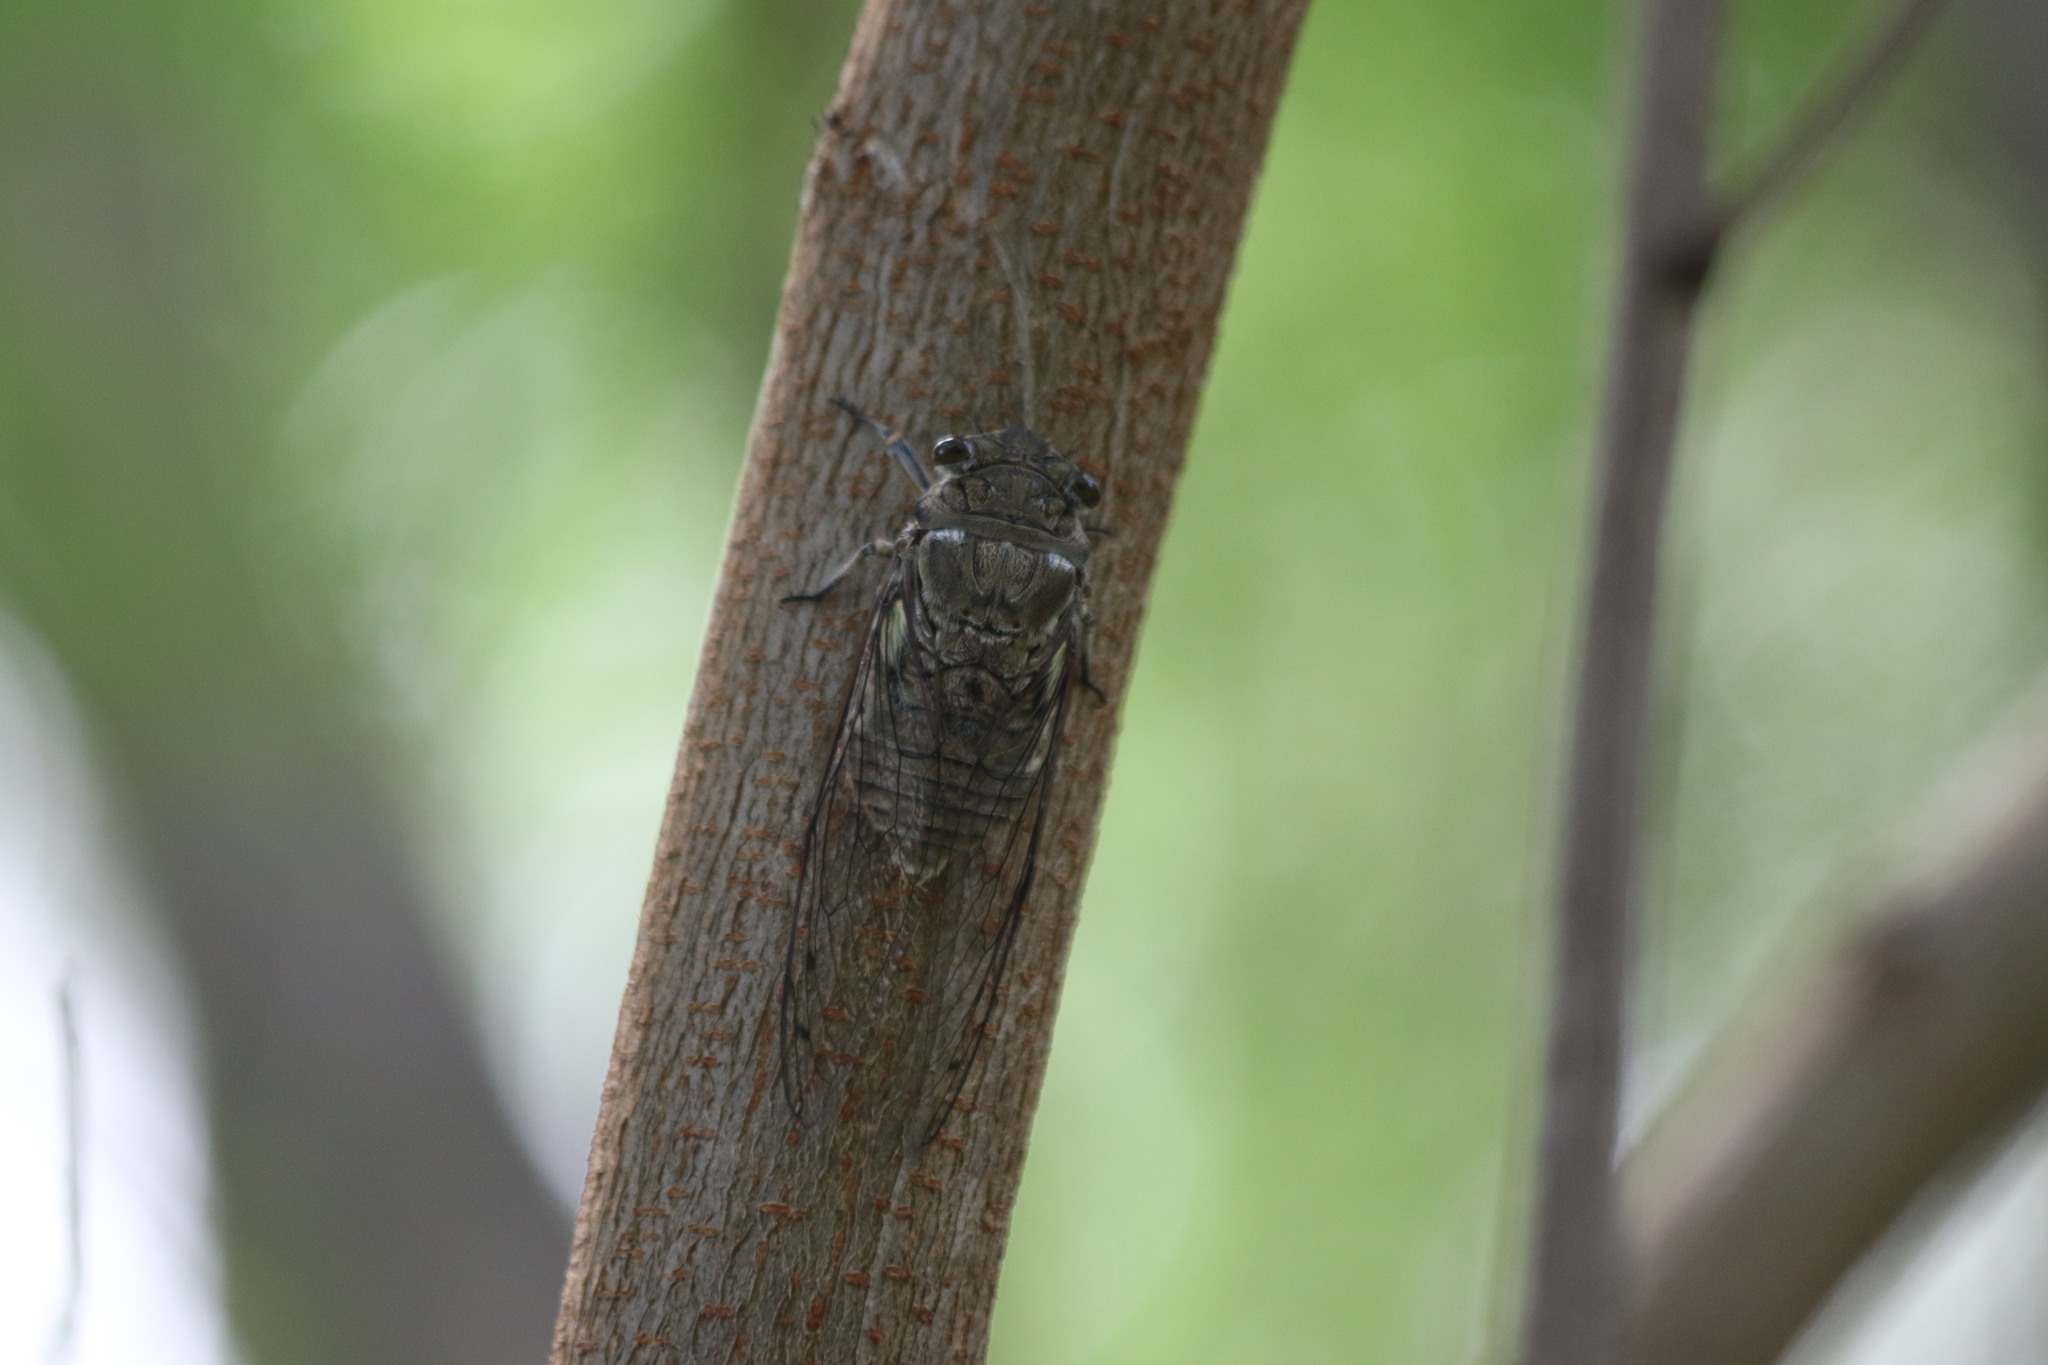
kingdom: Animalia
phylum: Arthropoda
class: Insecta
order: Hemiptera
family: Cicadidae
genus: Quesada
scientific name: Quesada gigas
